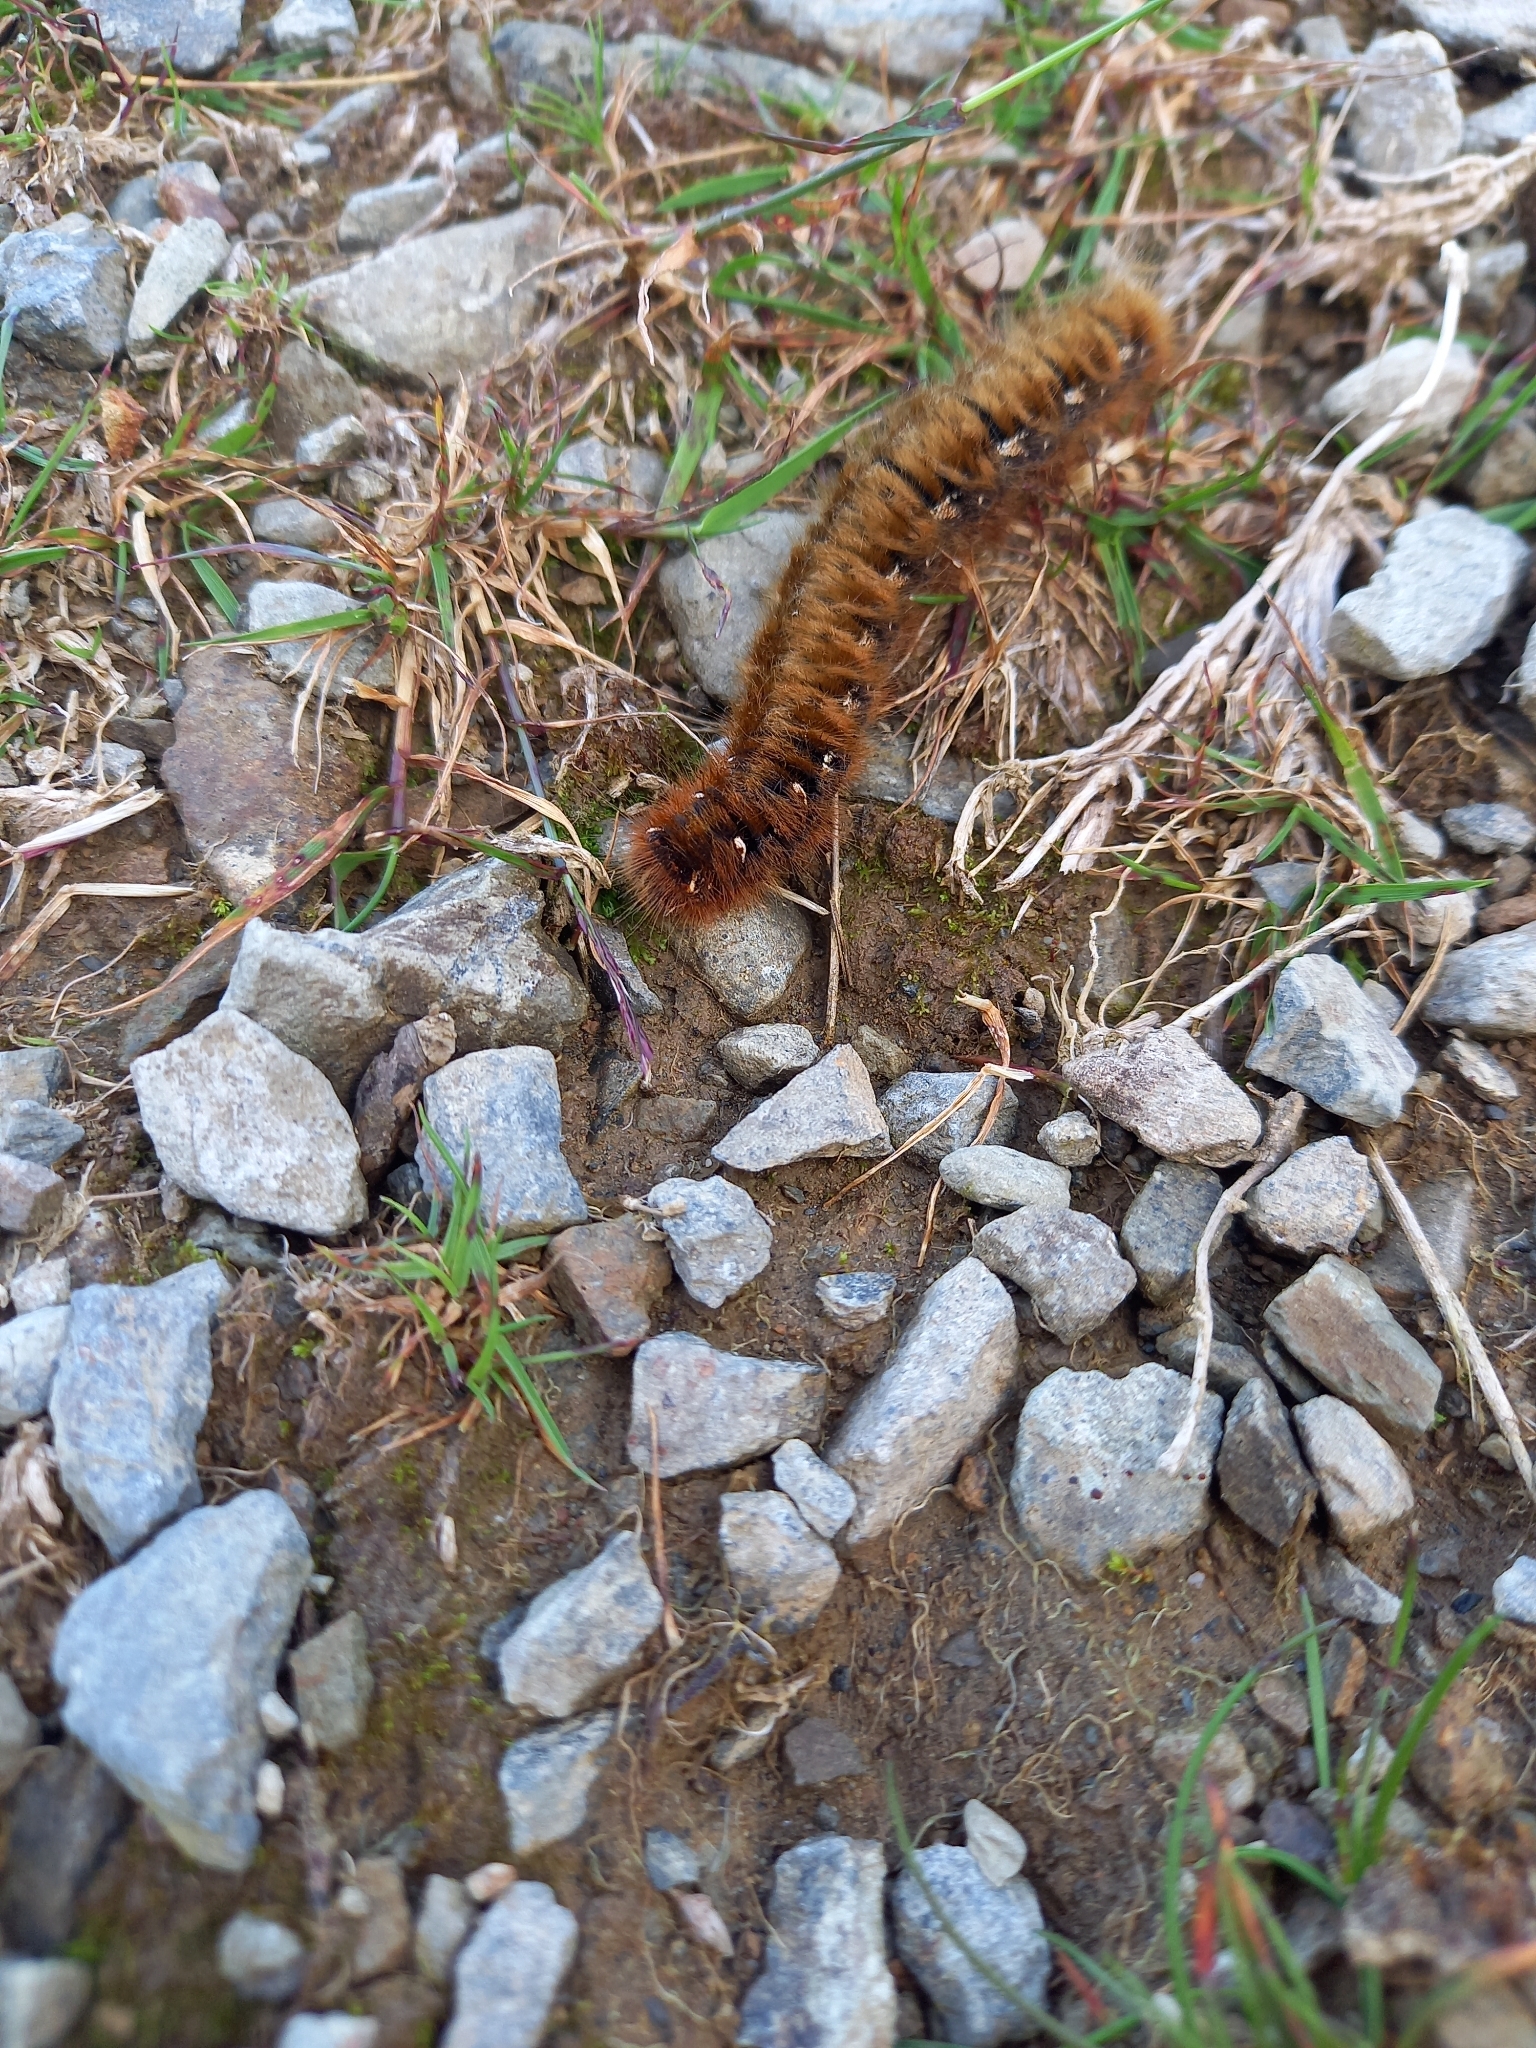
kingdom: Animalia
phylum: Arthropoda
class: Insecta
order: Lepidoptera
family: Lasiocampidae
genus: Lasiocampa
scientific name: Lasiocampa quercus
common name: Oak eggar
